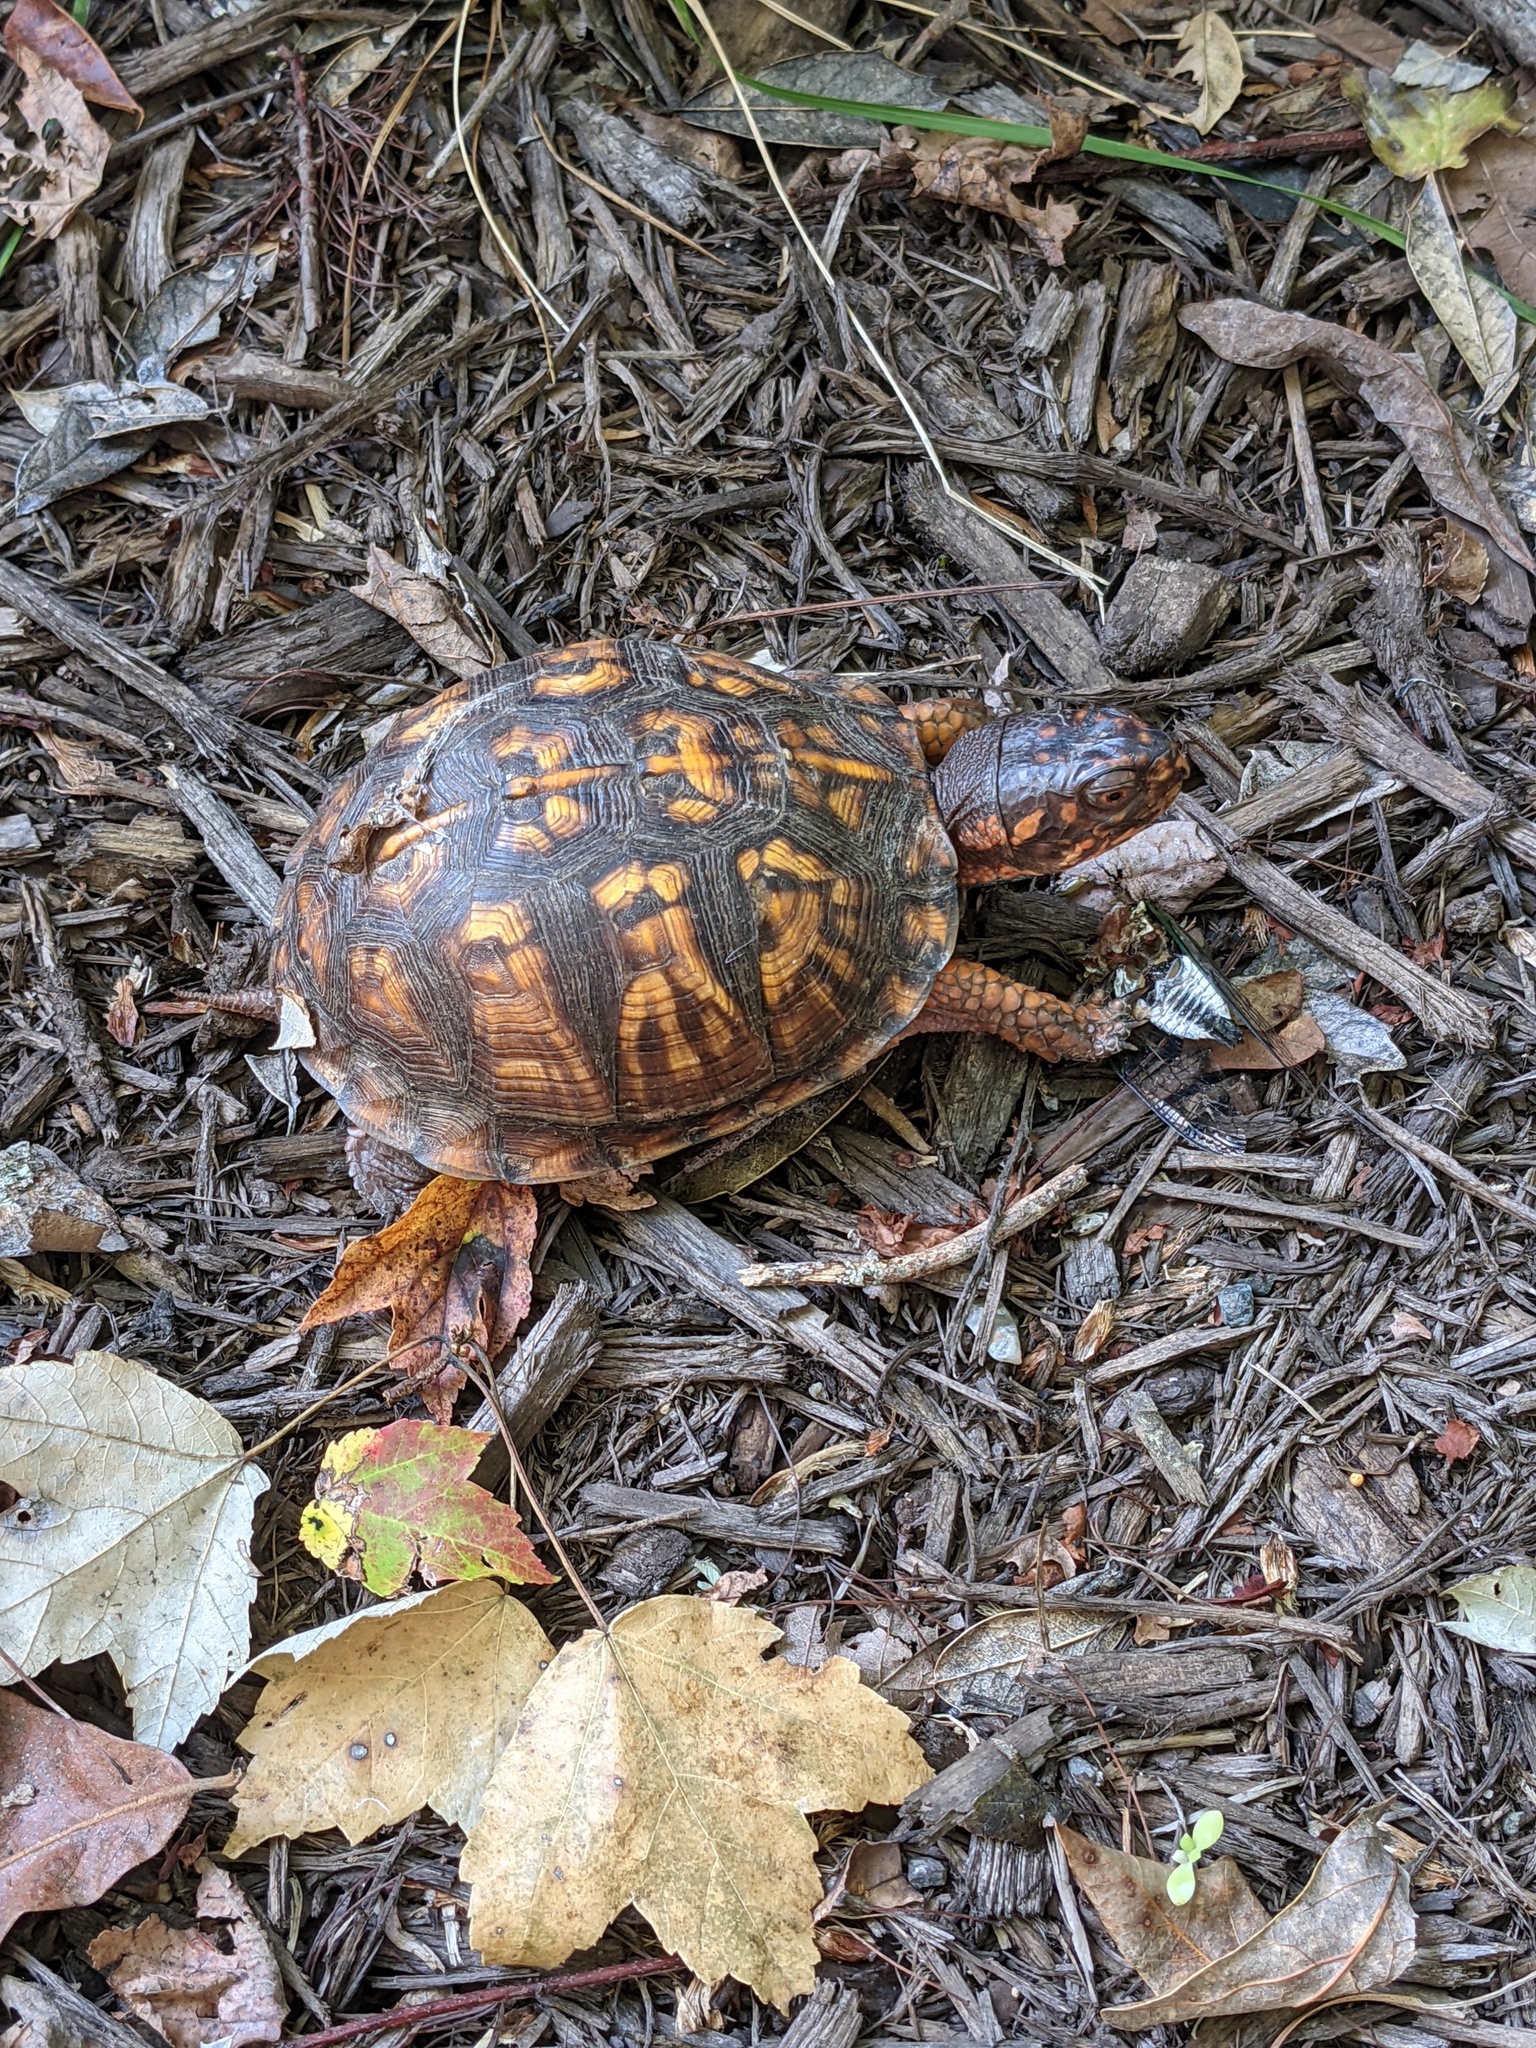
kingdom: Animalia
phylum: Chordata
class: Testudines
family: Emydidae
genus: Terrapene
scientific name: Terrapene carolina
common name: Common box turtle
